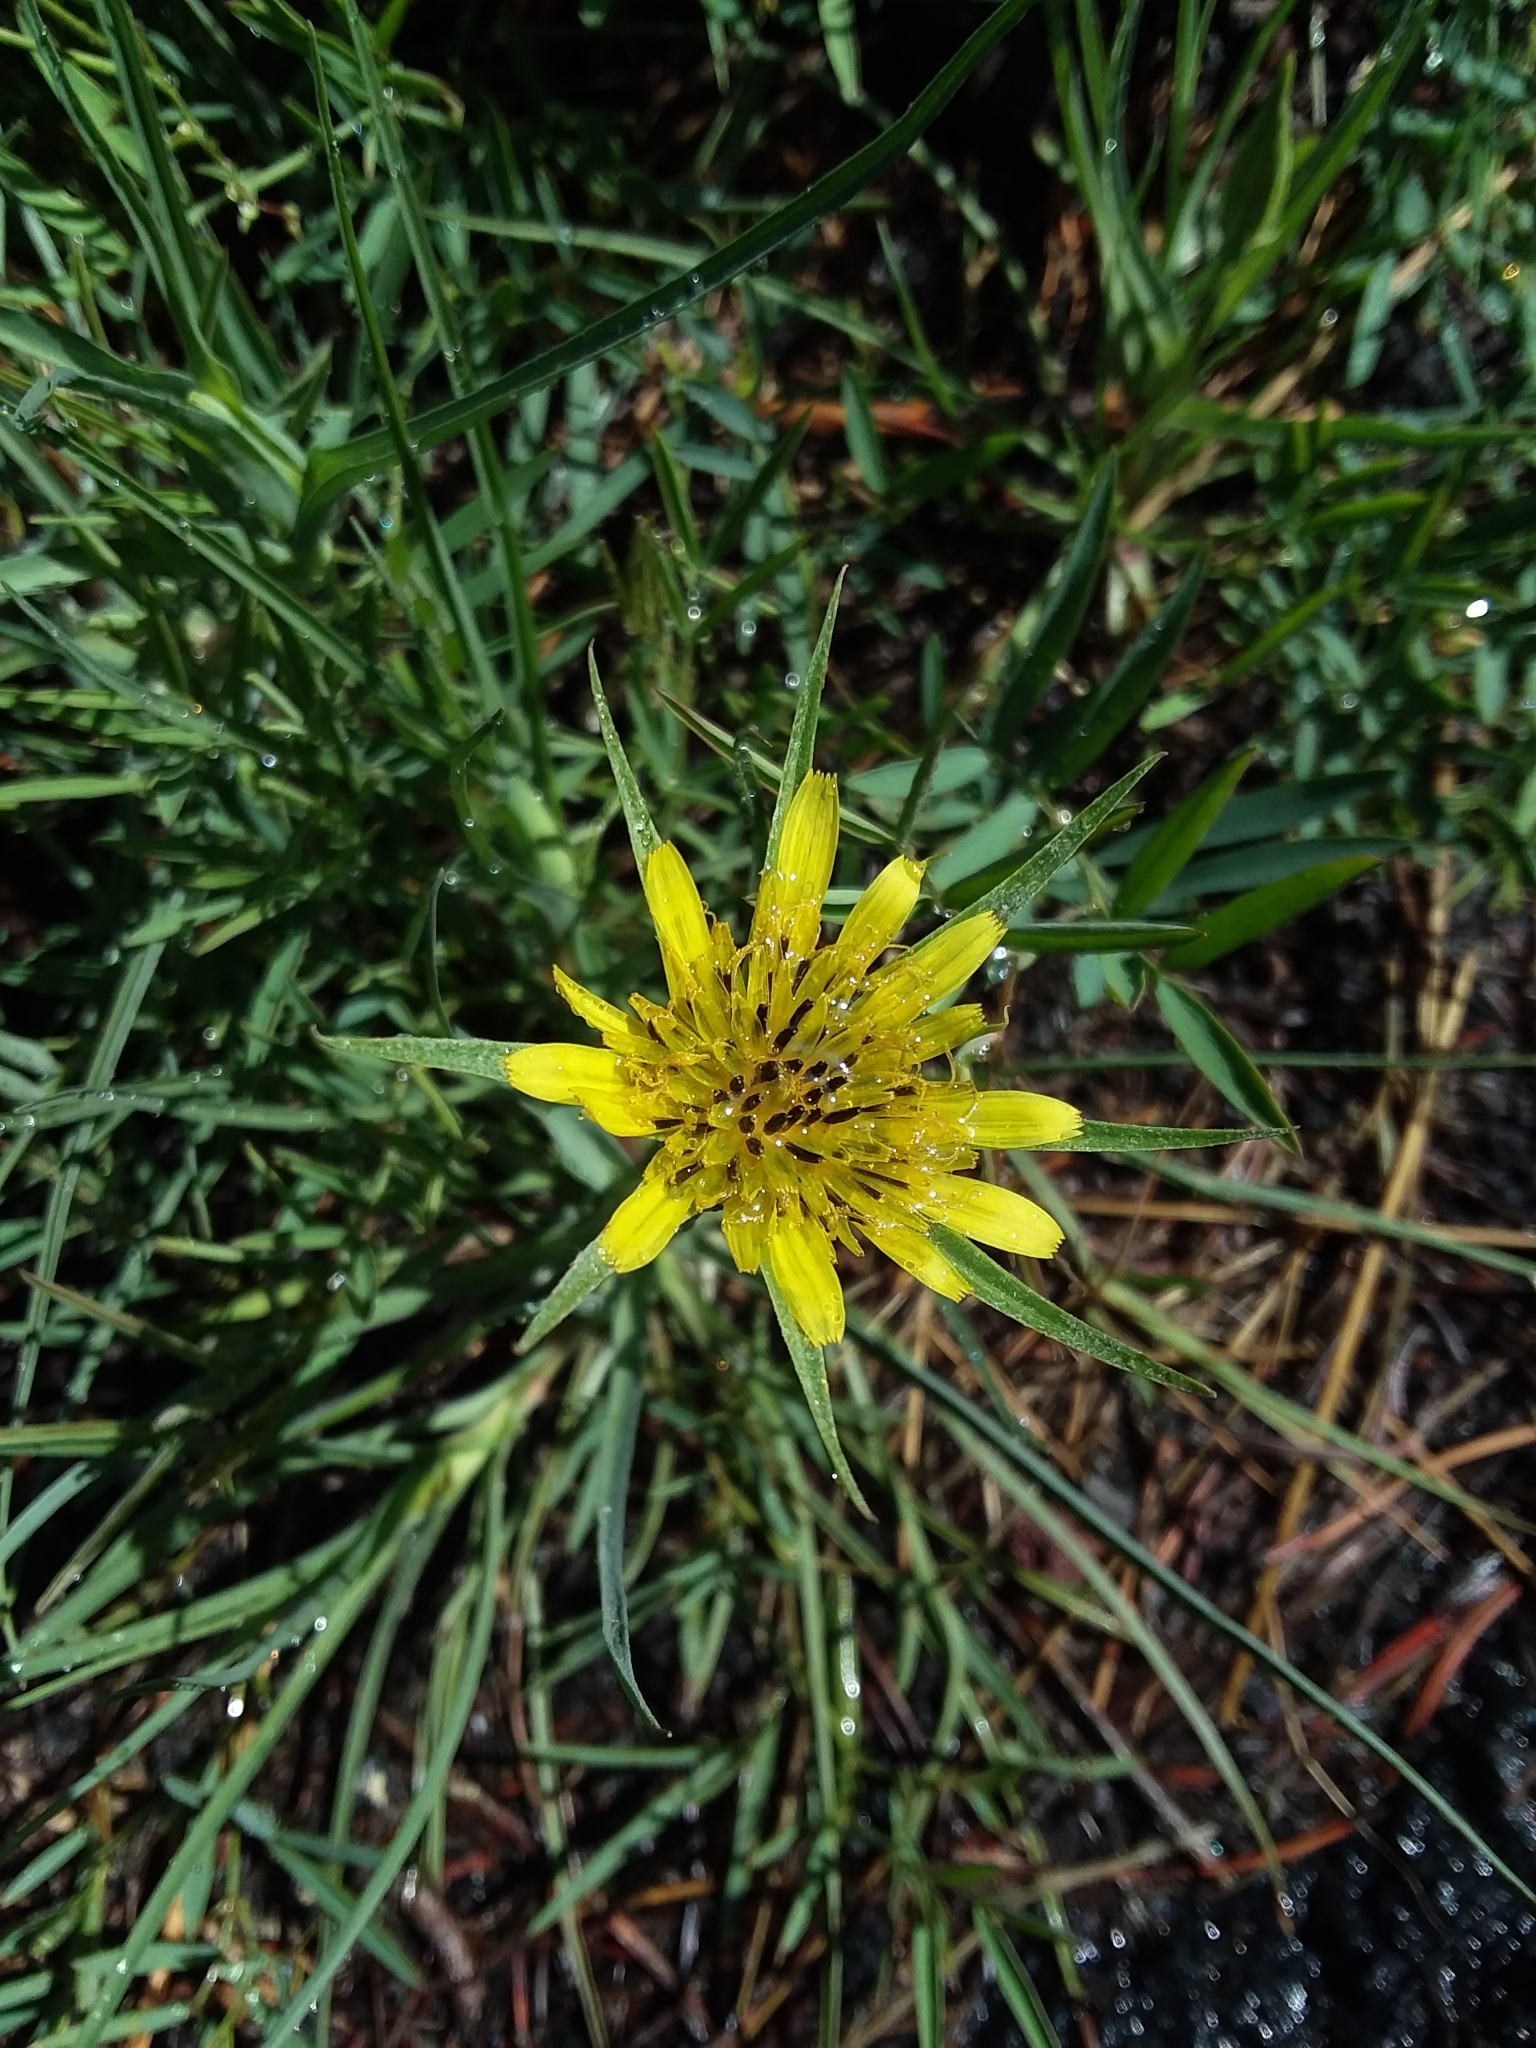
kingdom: Plantae
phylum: Tracheophyta
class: Magnoliopsida
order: Asterales
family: Asteraceae
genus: Tragopogon
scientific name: Tragopogon dubius
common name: Yellow salsify
